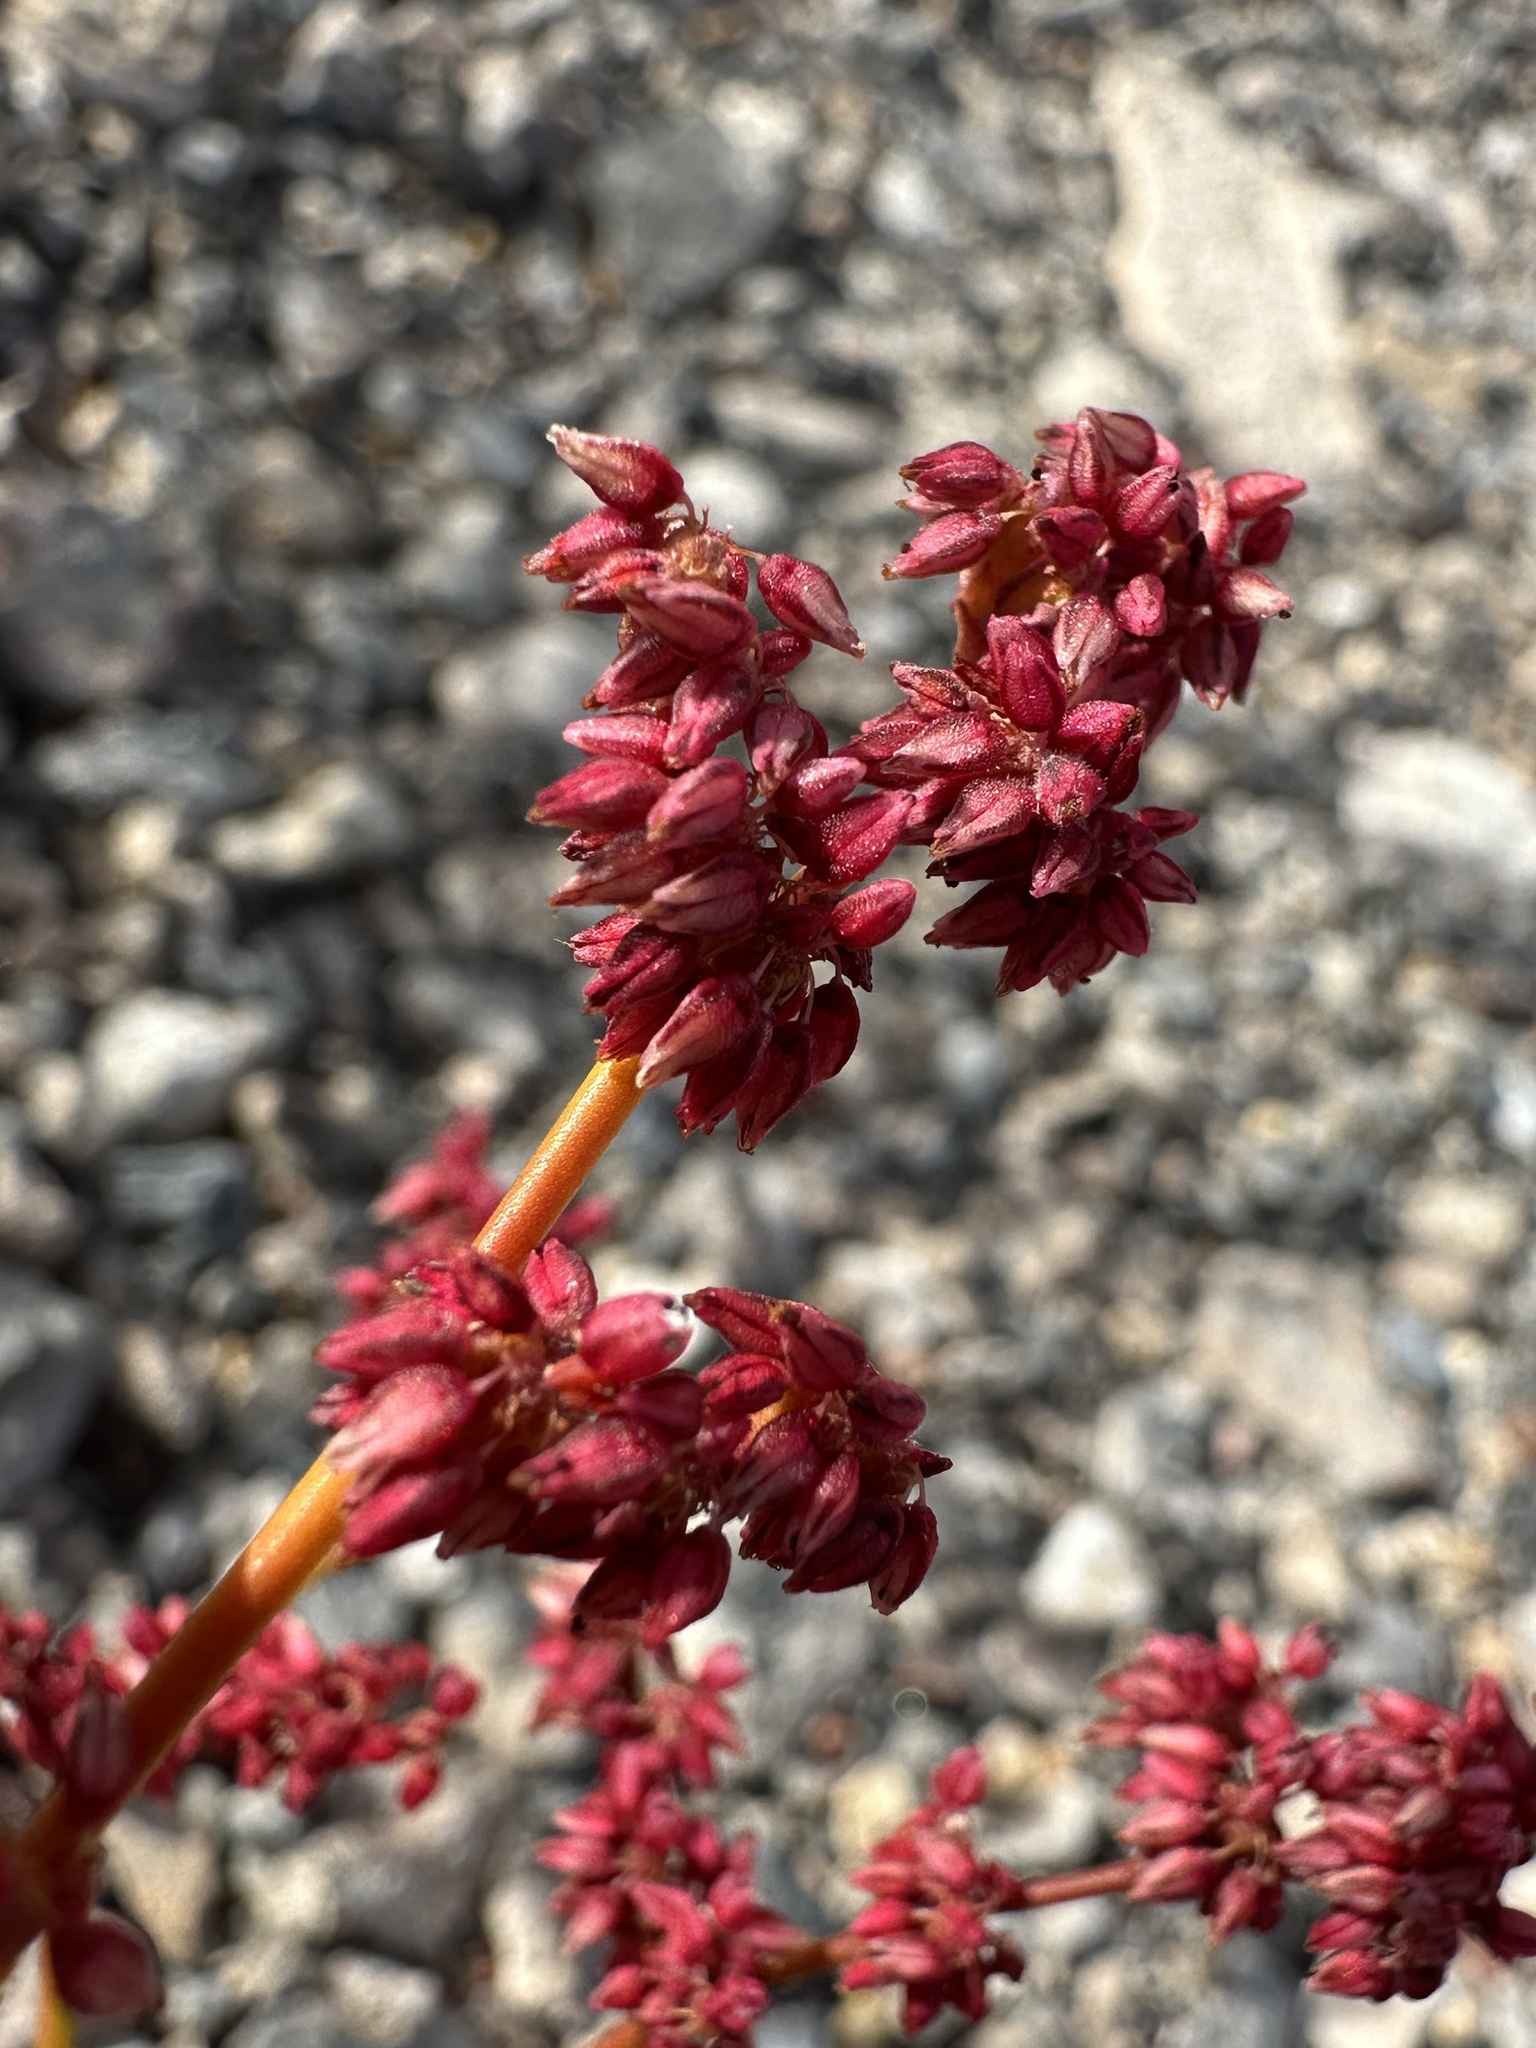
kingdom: Plantae
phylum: Tracheophyta
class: Magnoliopsida
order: Caryophyllales
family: Polygonaceae
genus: Eriogonum
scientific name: Eriogonum hoffmannii
